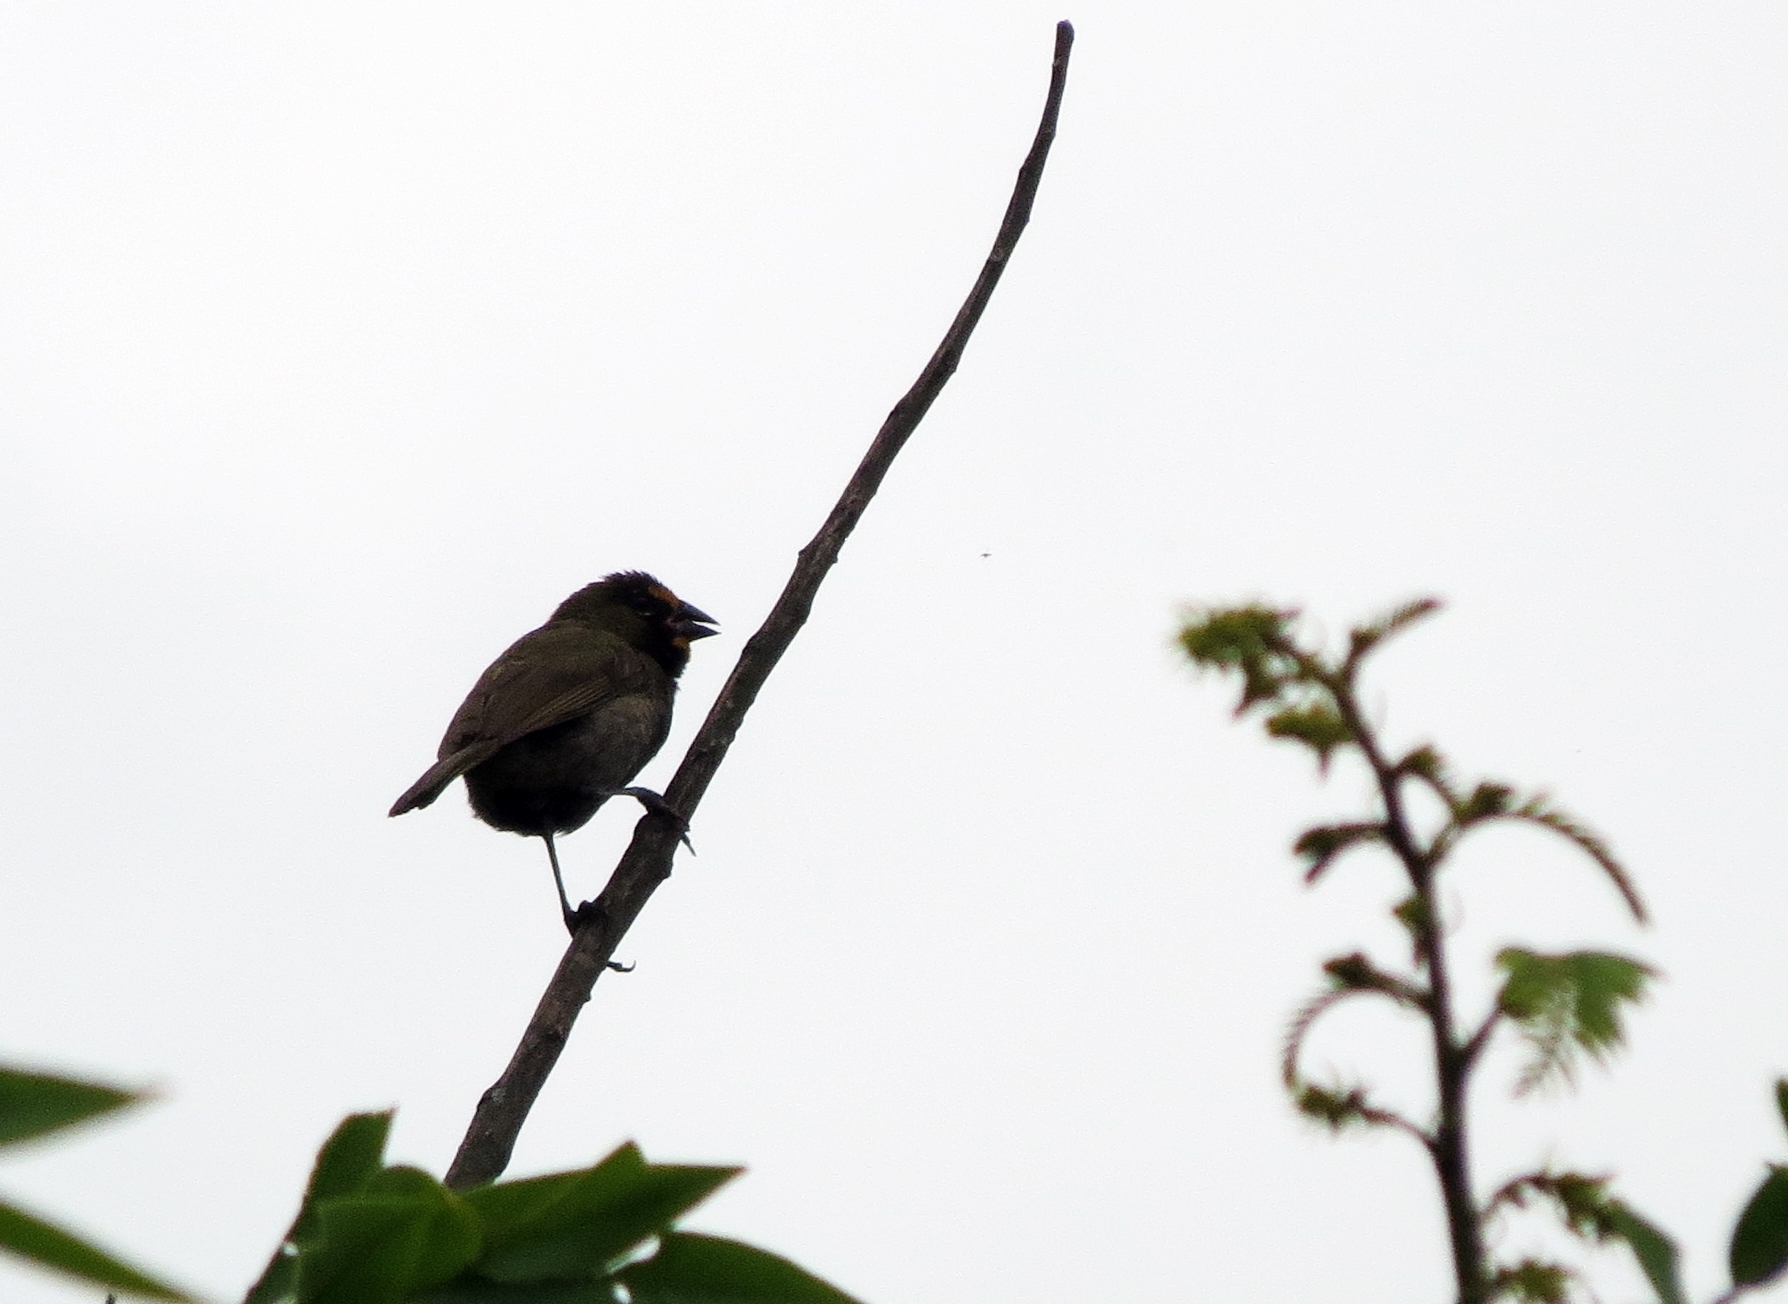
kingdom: Animalia
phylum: Chordata
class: Aves
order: Passeriformes
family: Thraupidae
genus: Tiaris
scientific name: Tiaris olivaceus
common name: Yellow-faced grassquit
